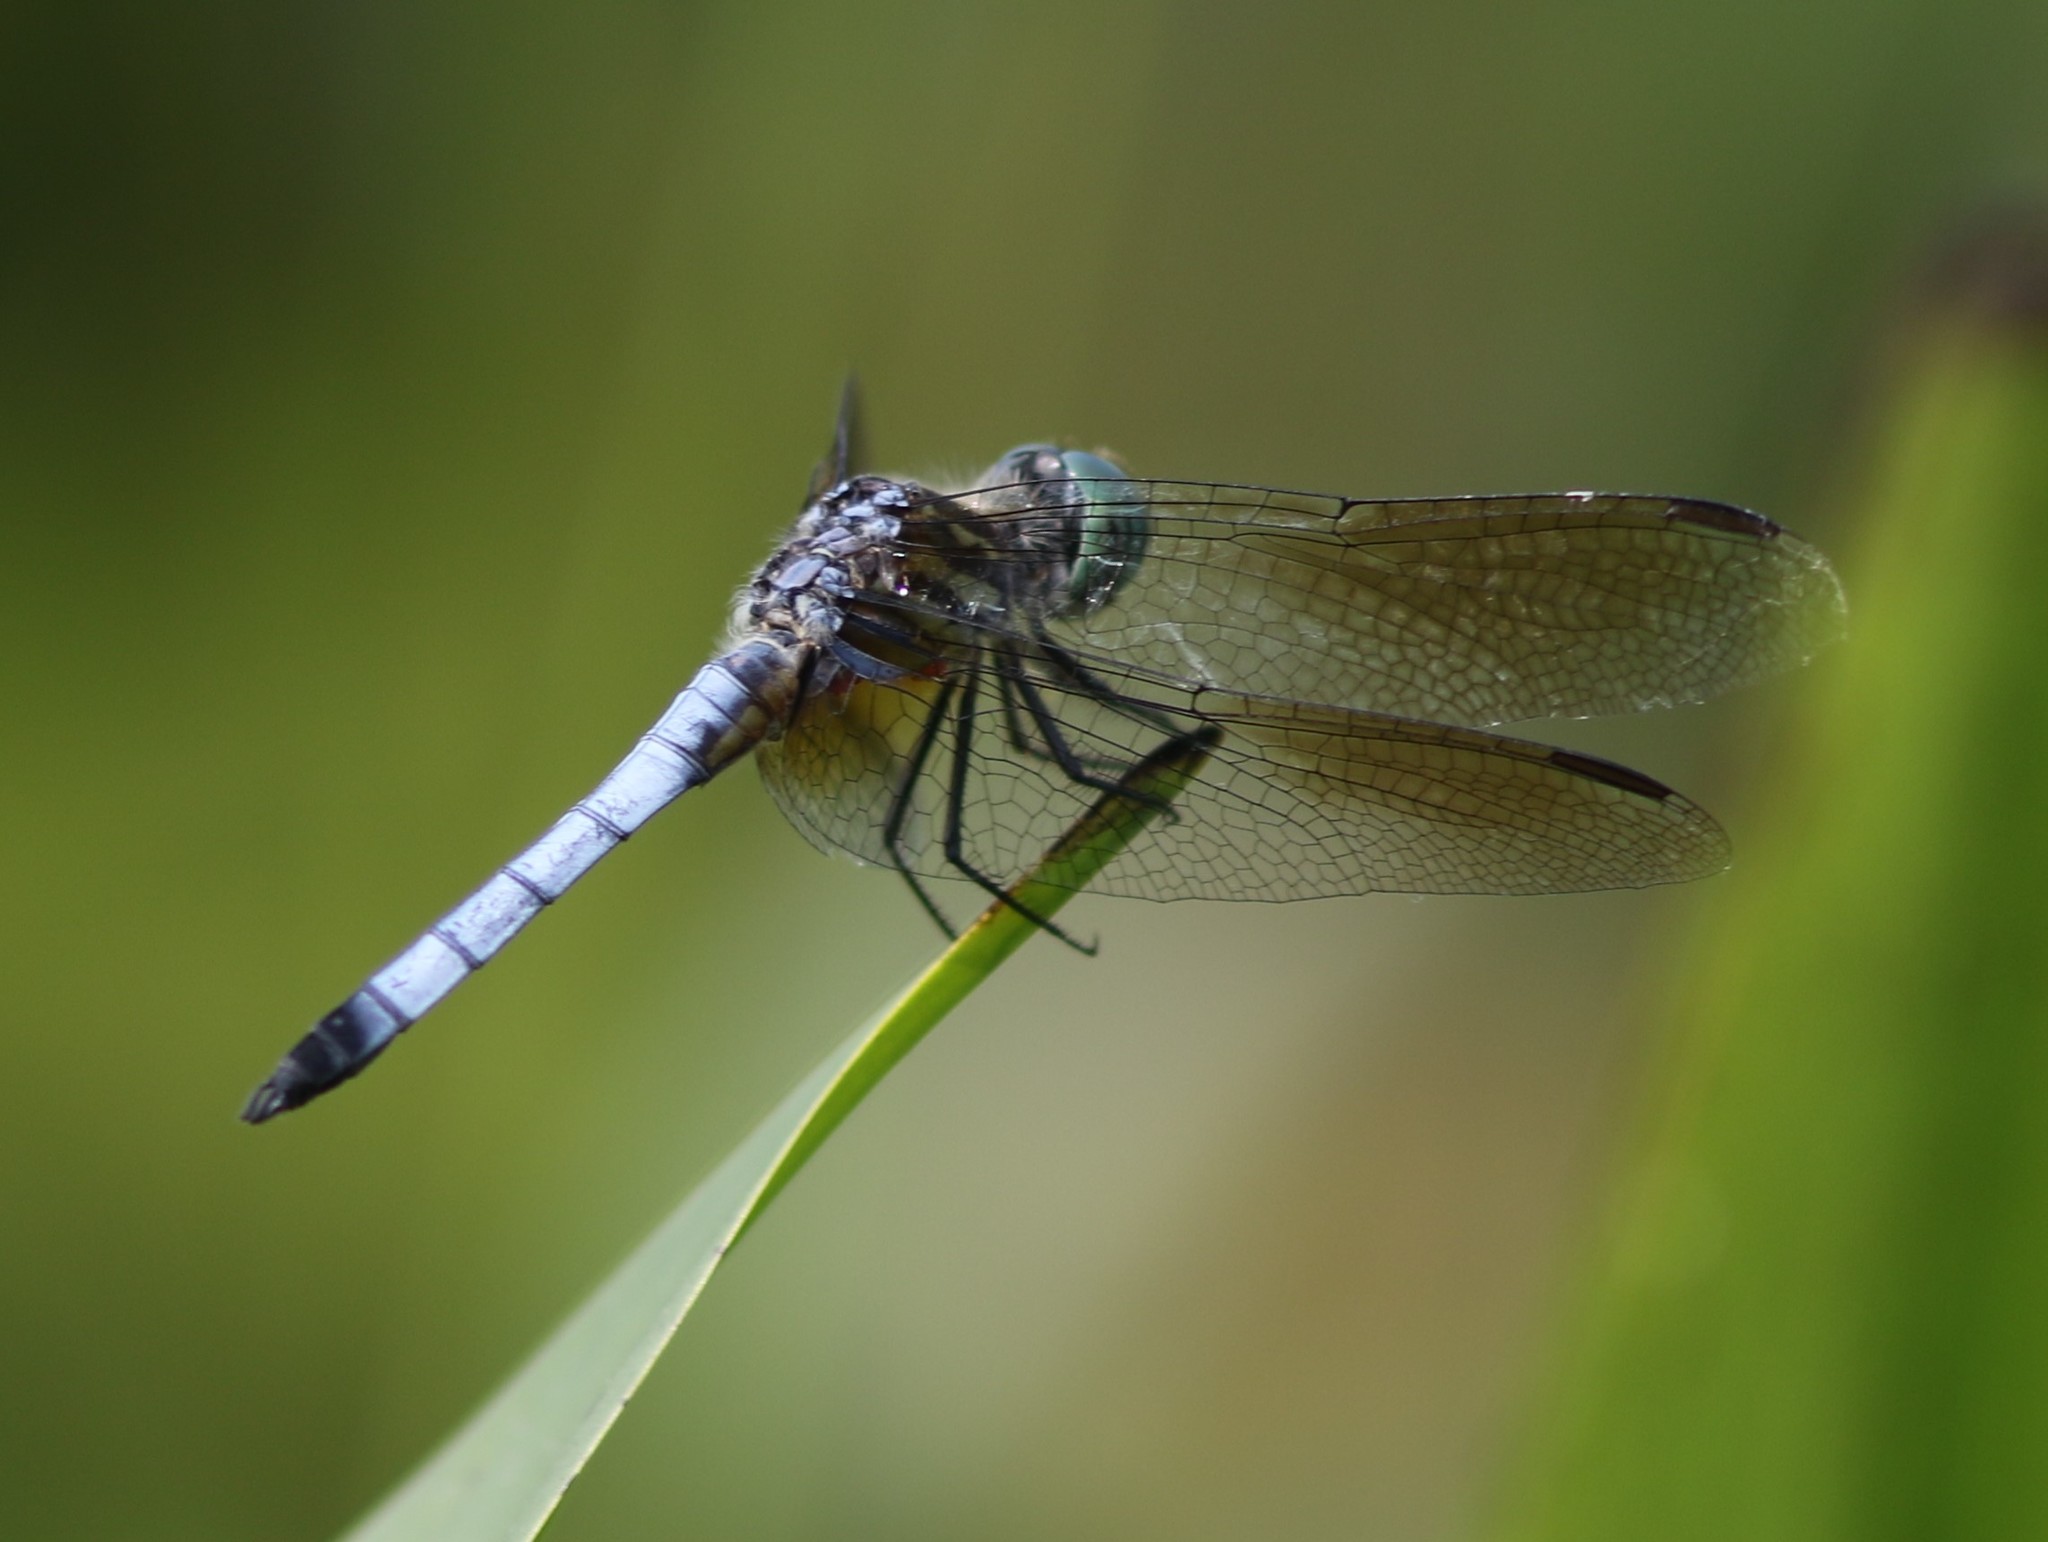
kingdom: Animalia
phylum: Arthropoda
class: Insecta
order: Odonata
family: Libellulidae
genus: Pachydiplax
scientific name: Pachydiplax longipennis
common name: Blue dasher
